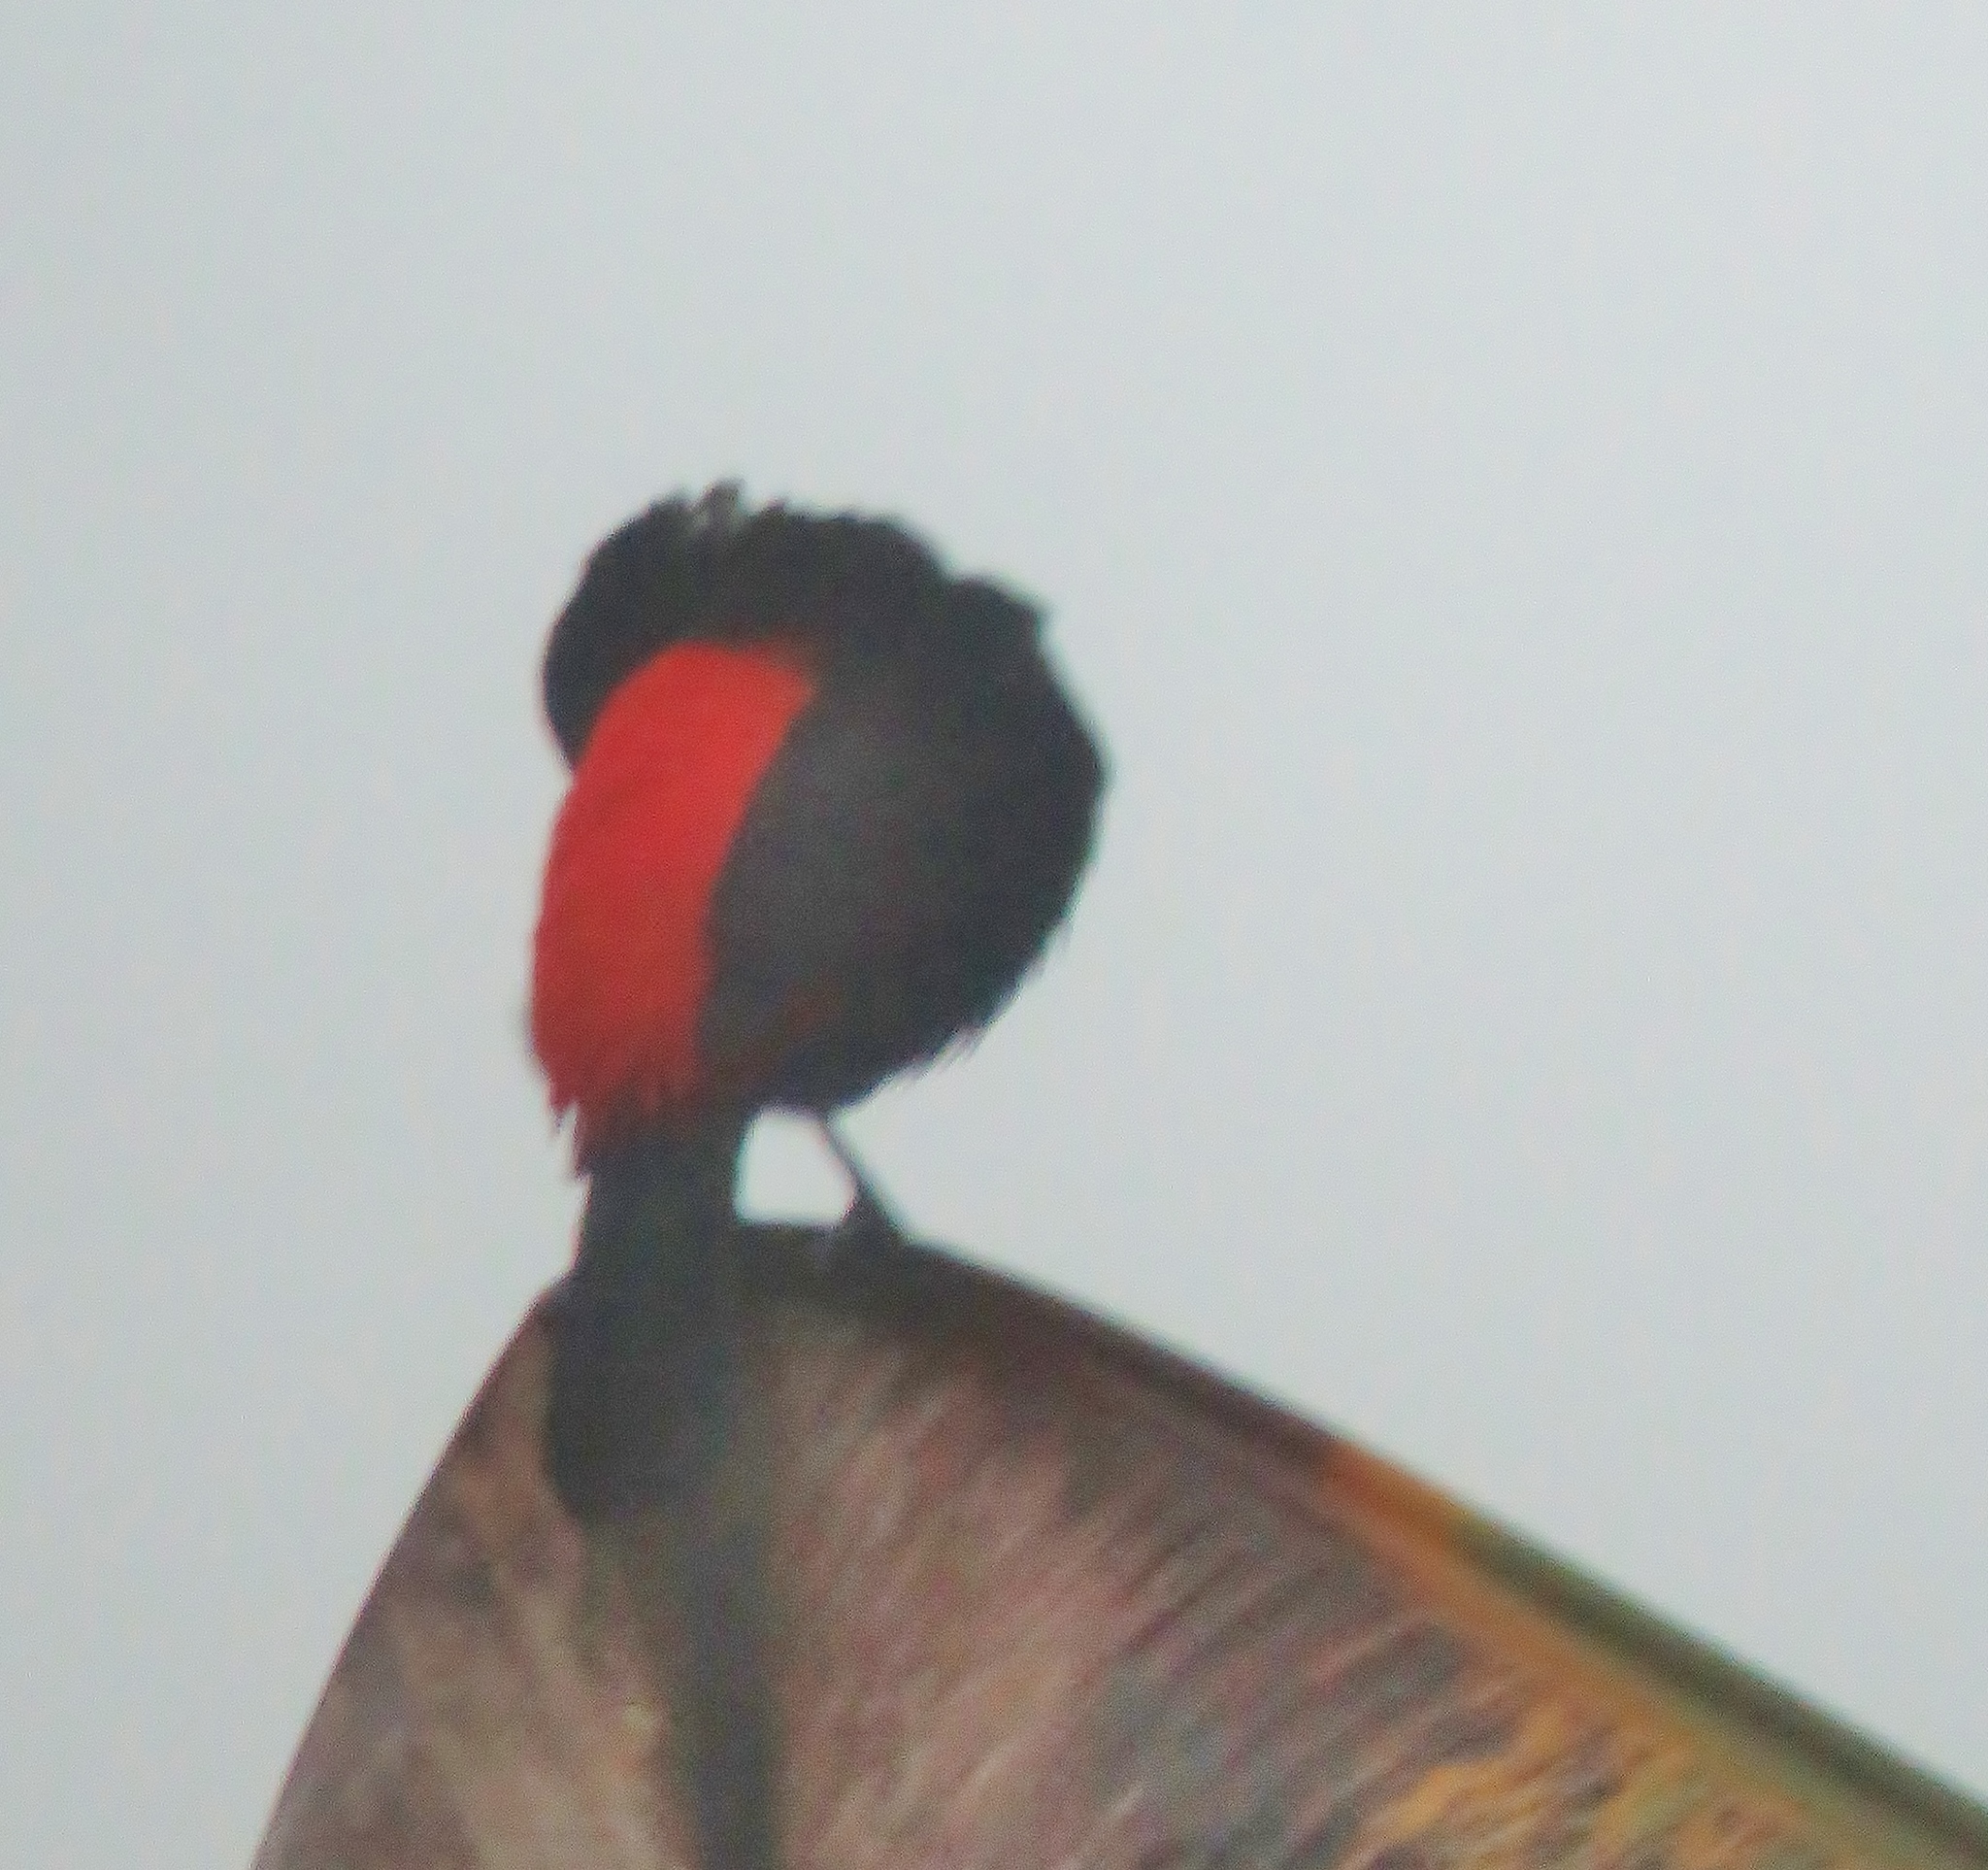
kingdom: Animalia
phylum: Chordata
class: Aves
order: Passeriformes
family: Thraupidae
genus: Ramphocelus
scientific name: Ramphocelus passerinii
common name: Passerini's tanager
